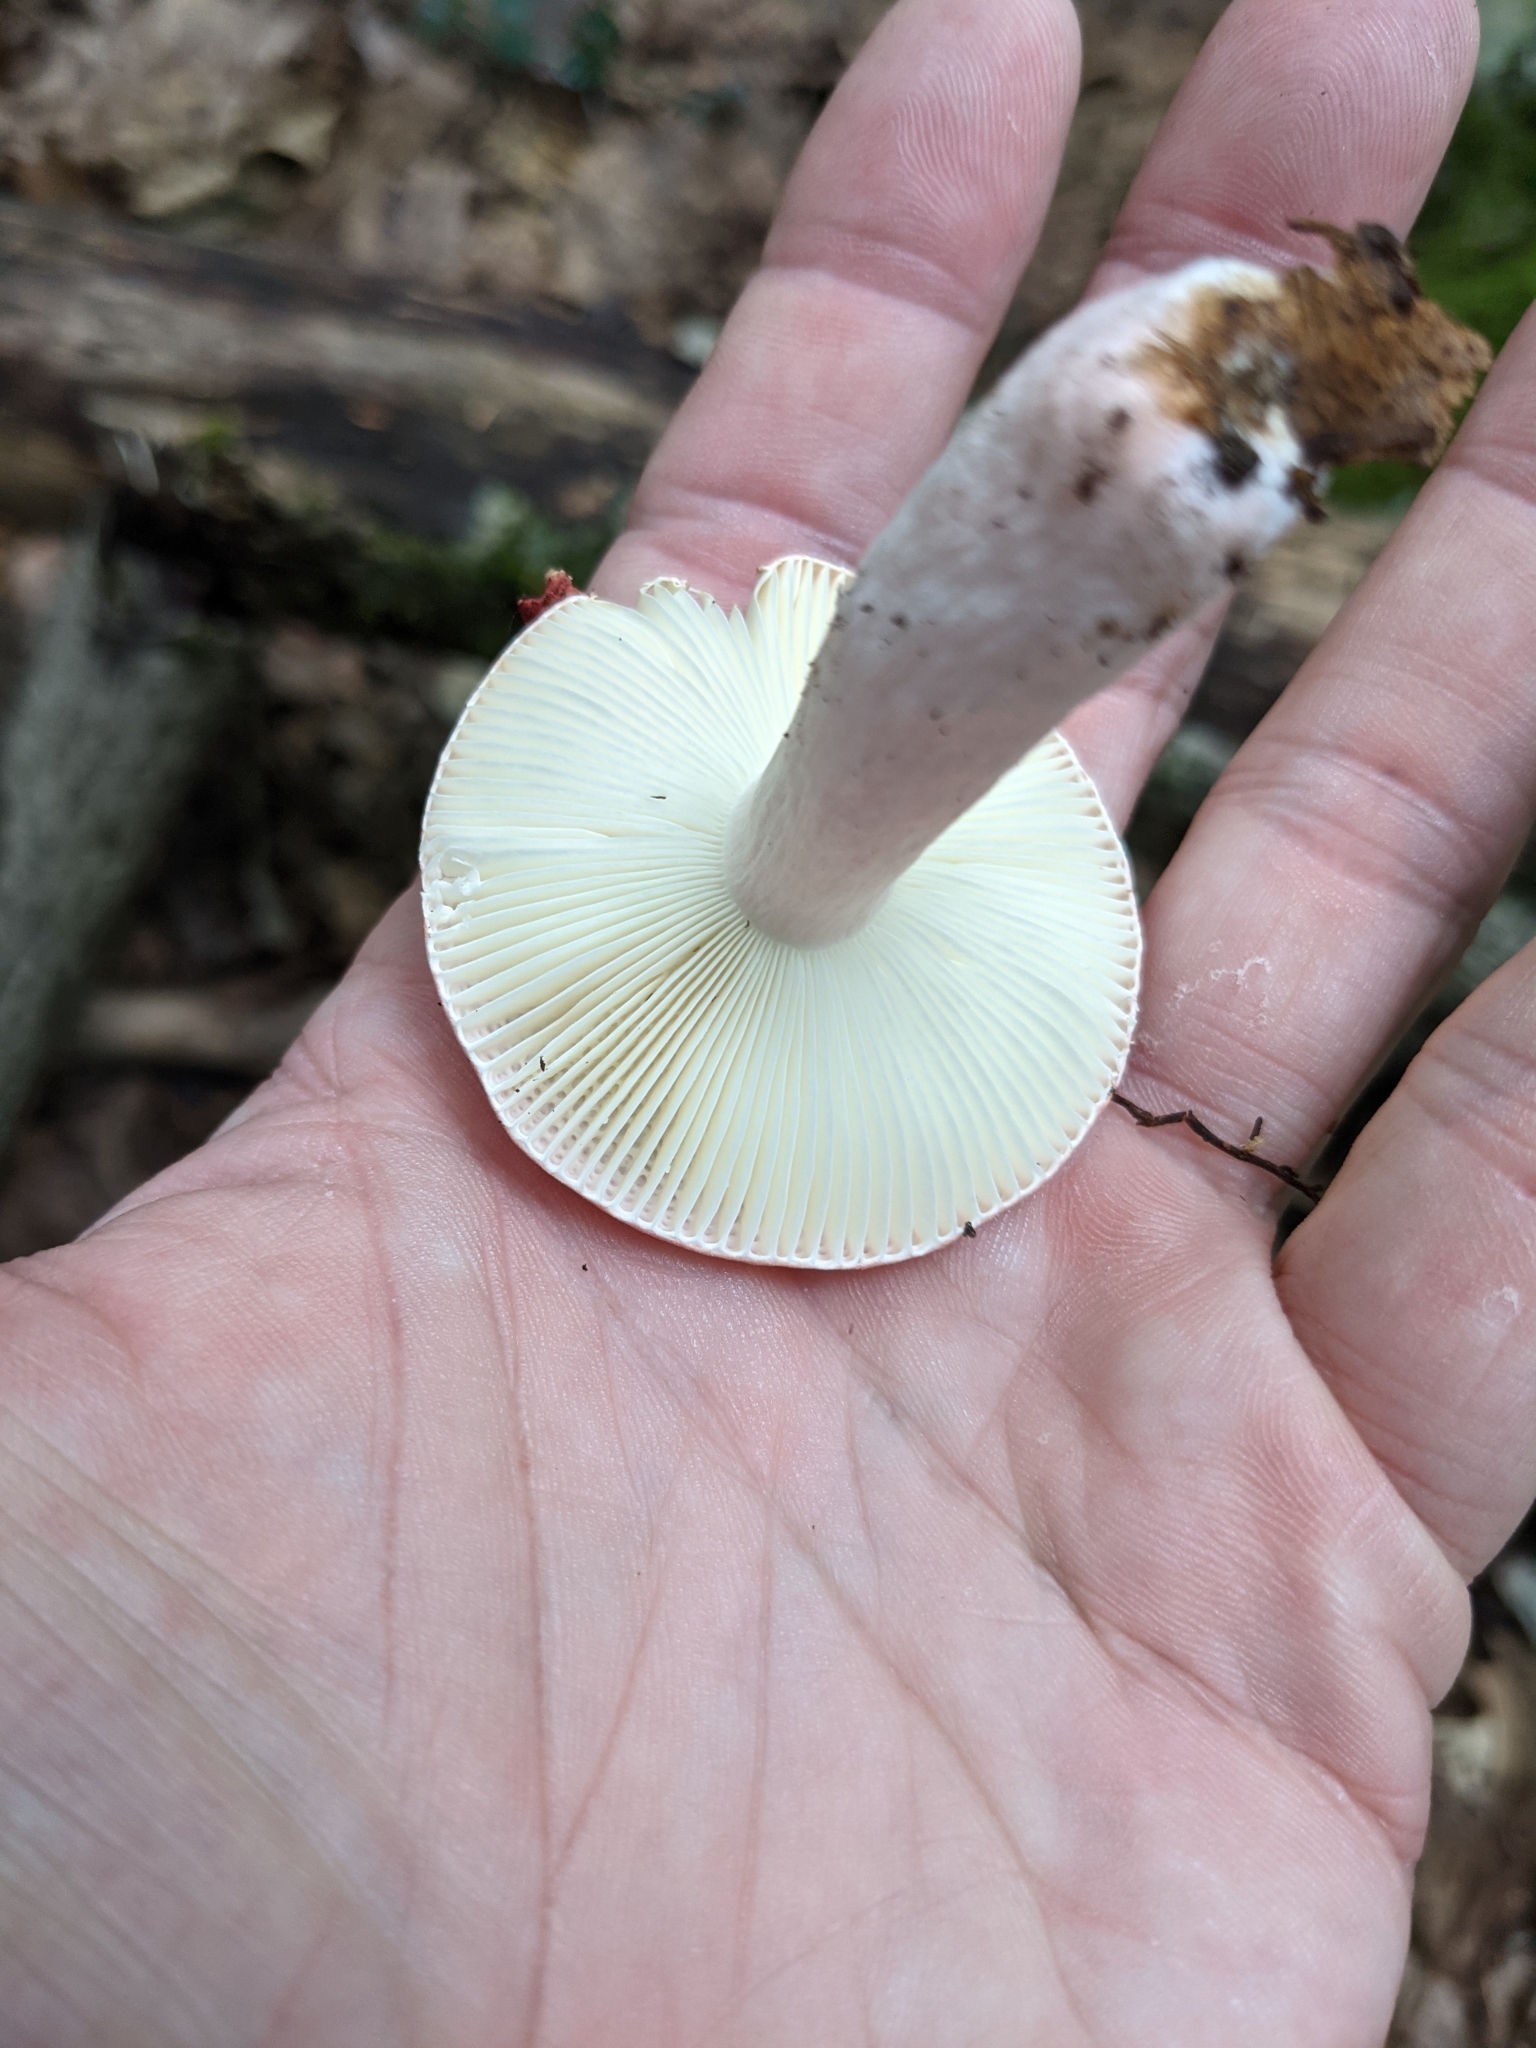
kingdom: Fungi
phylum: Basidiomycota
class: Agaricomycetes
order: Russulales
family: Russulaceae
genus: Russula
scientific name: Russula
